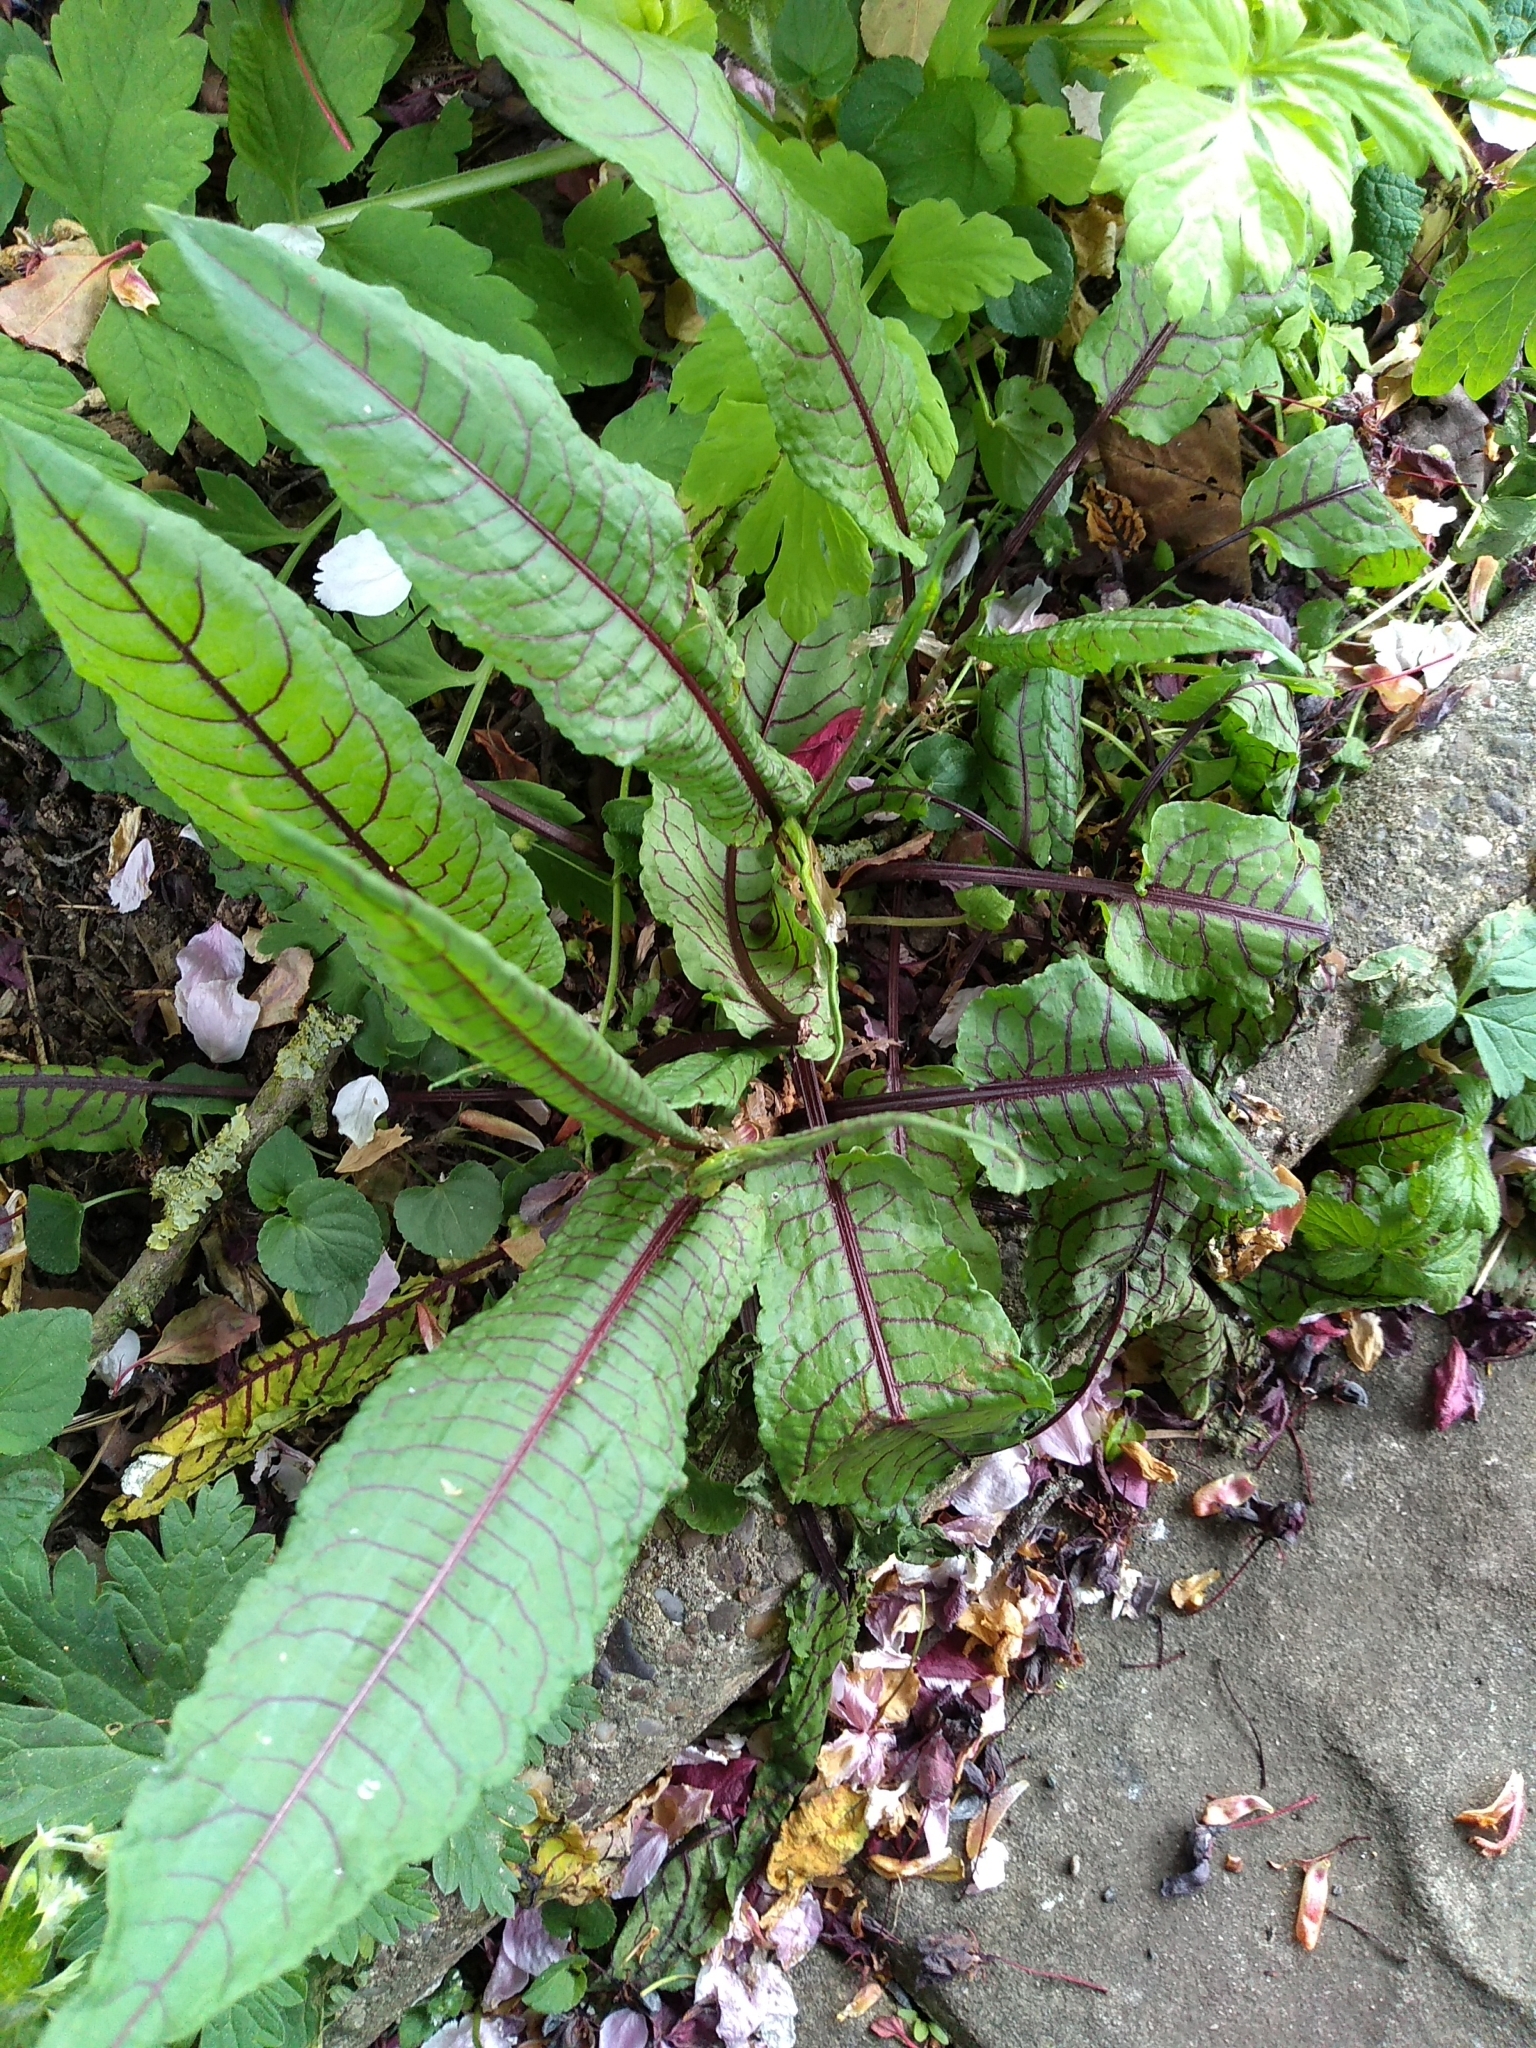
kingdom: Plantae
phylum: Tracheophyta
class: Magnoliopsida
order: Caryophyllales
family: Polygonaceae
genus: Rumex
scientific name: Rumex sanguineus
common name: Wood dock
